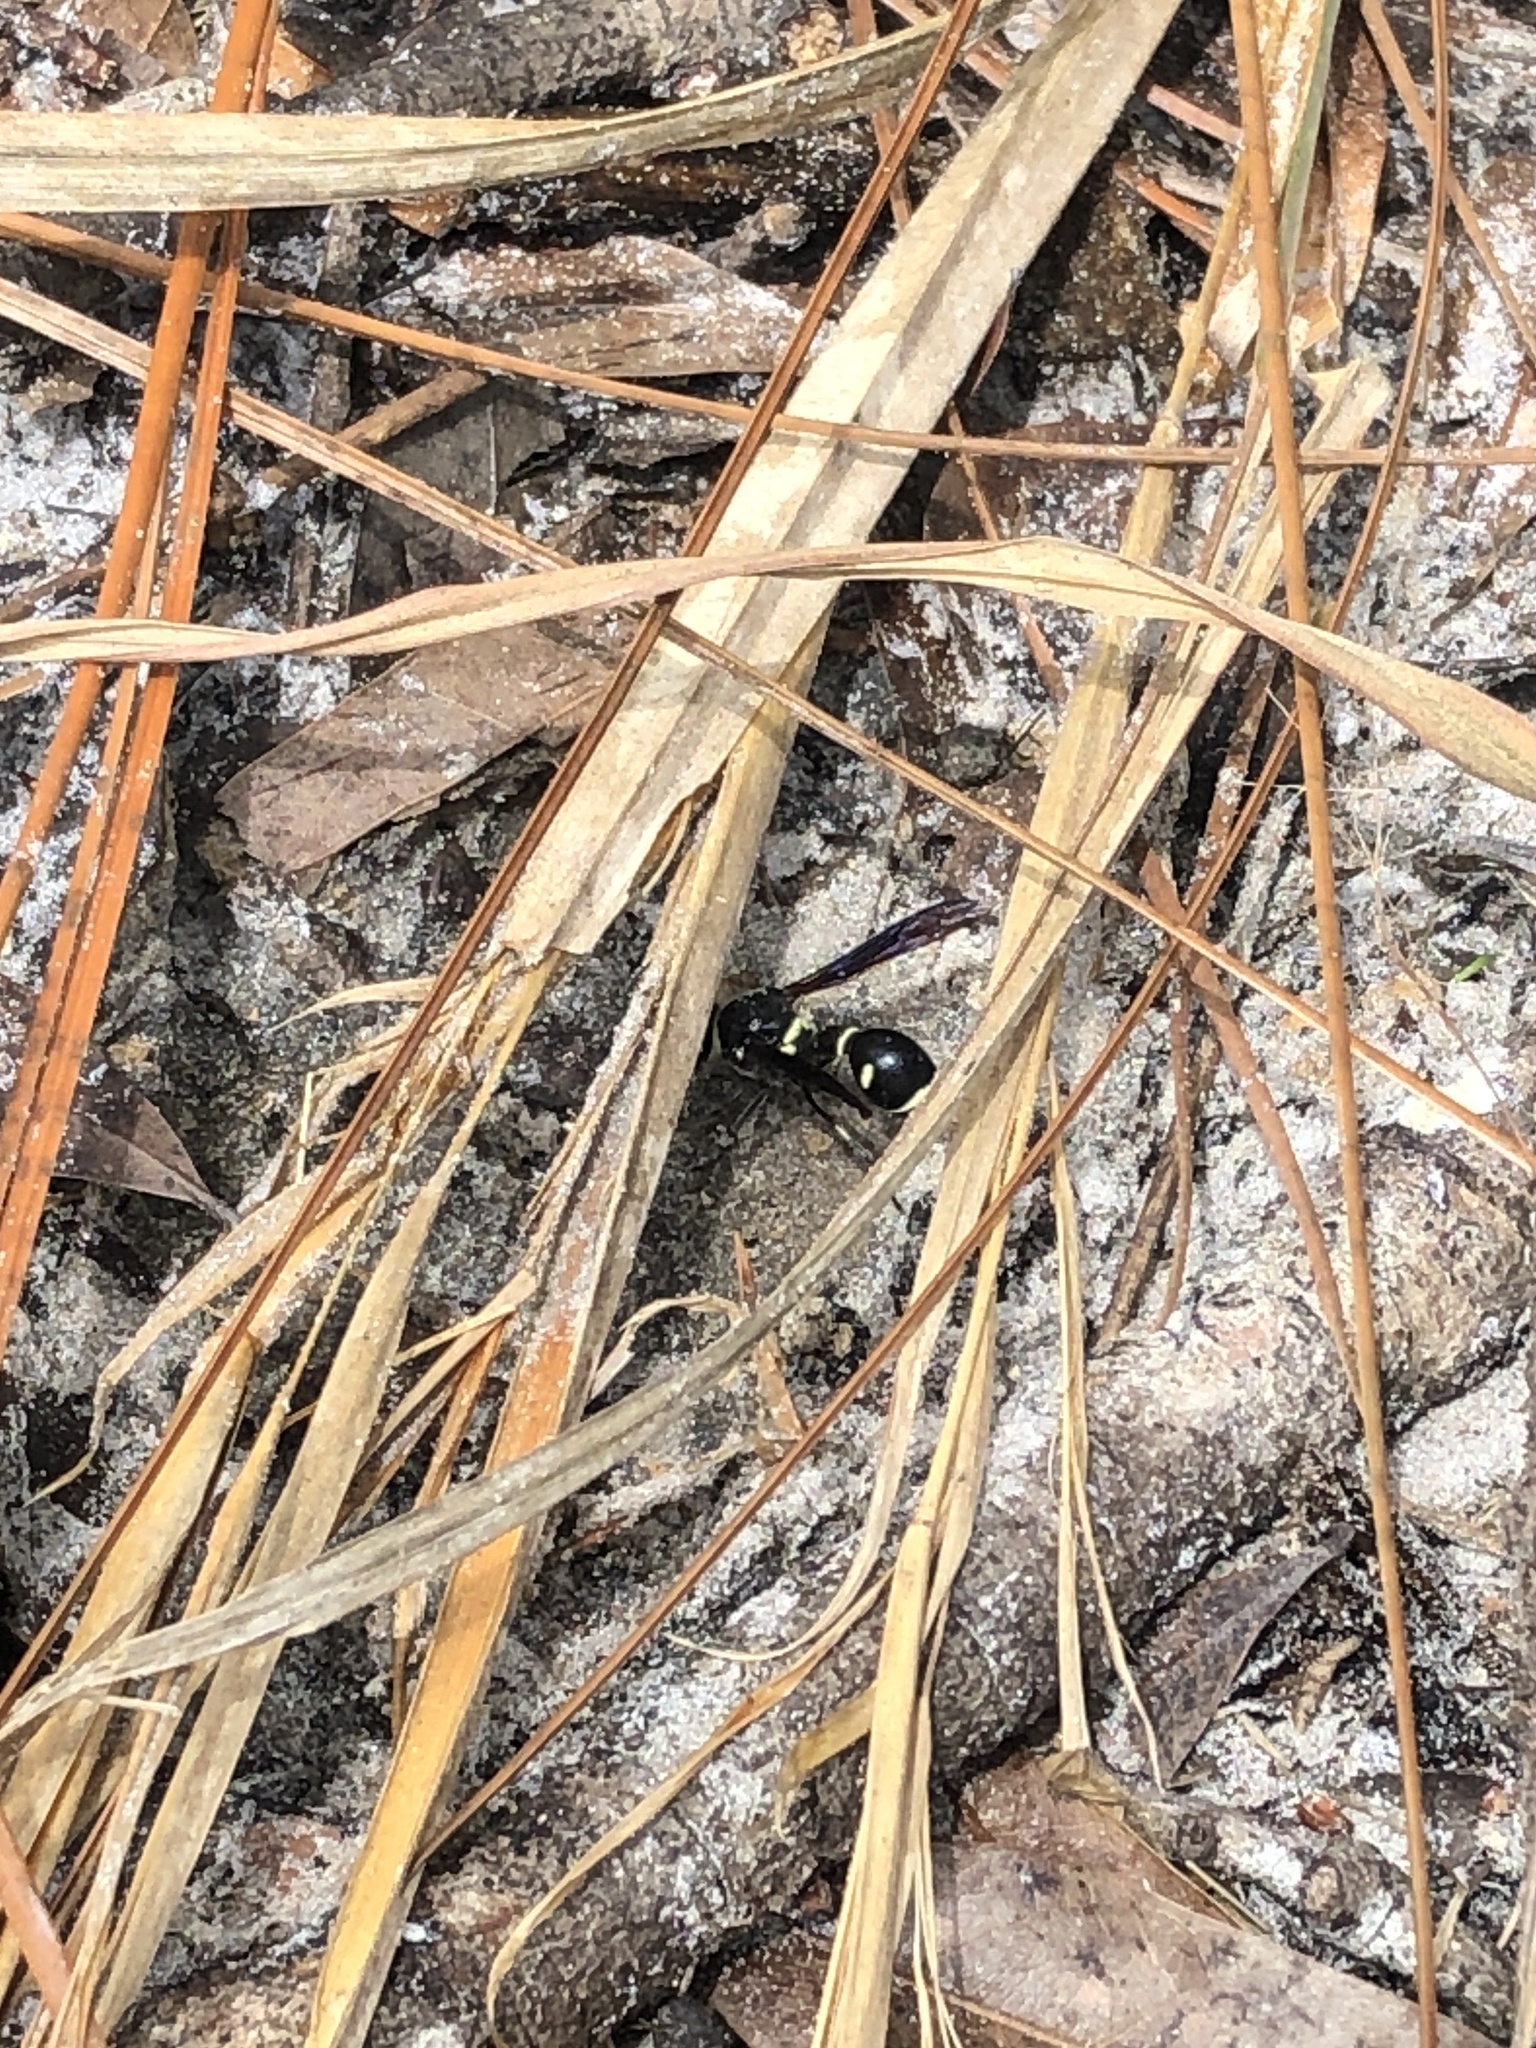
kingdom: Animalia
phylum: Arthropoda
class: Insecta
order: Hymenoptera
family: Vespidae
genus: Eumenes
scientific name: Eumenes fraternus
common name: Fraternal potter wasp
